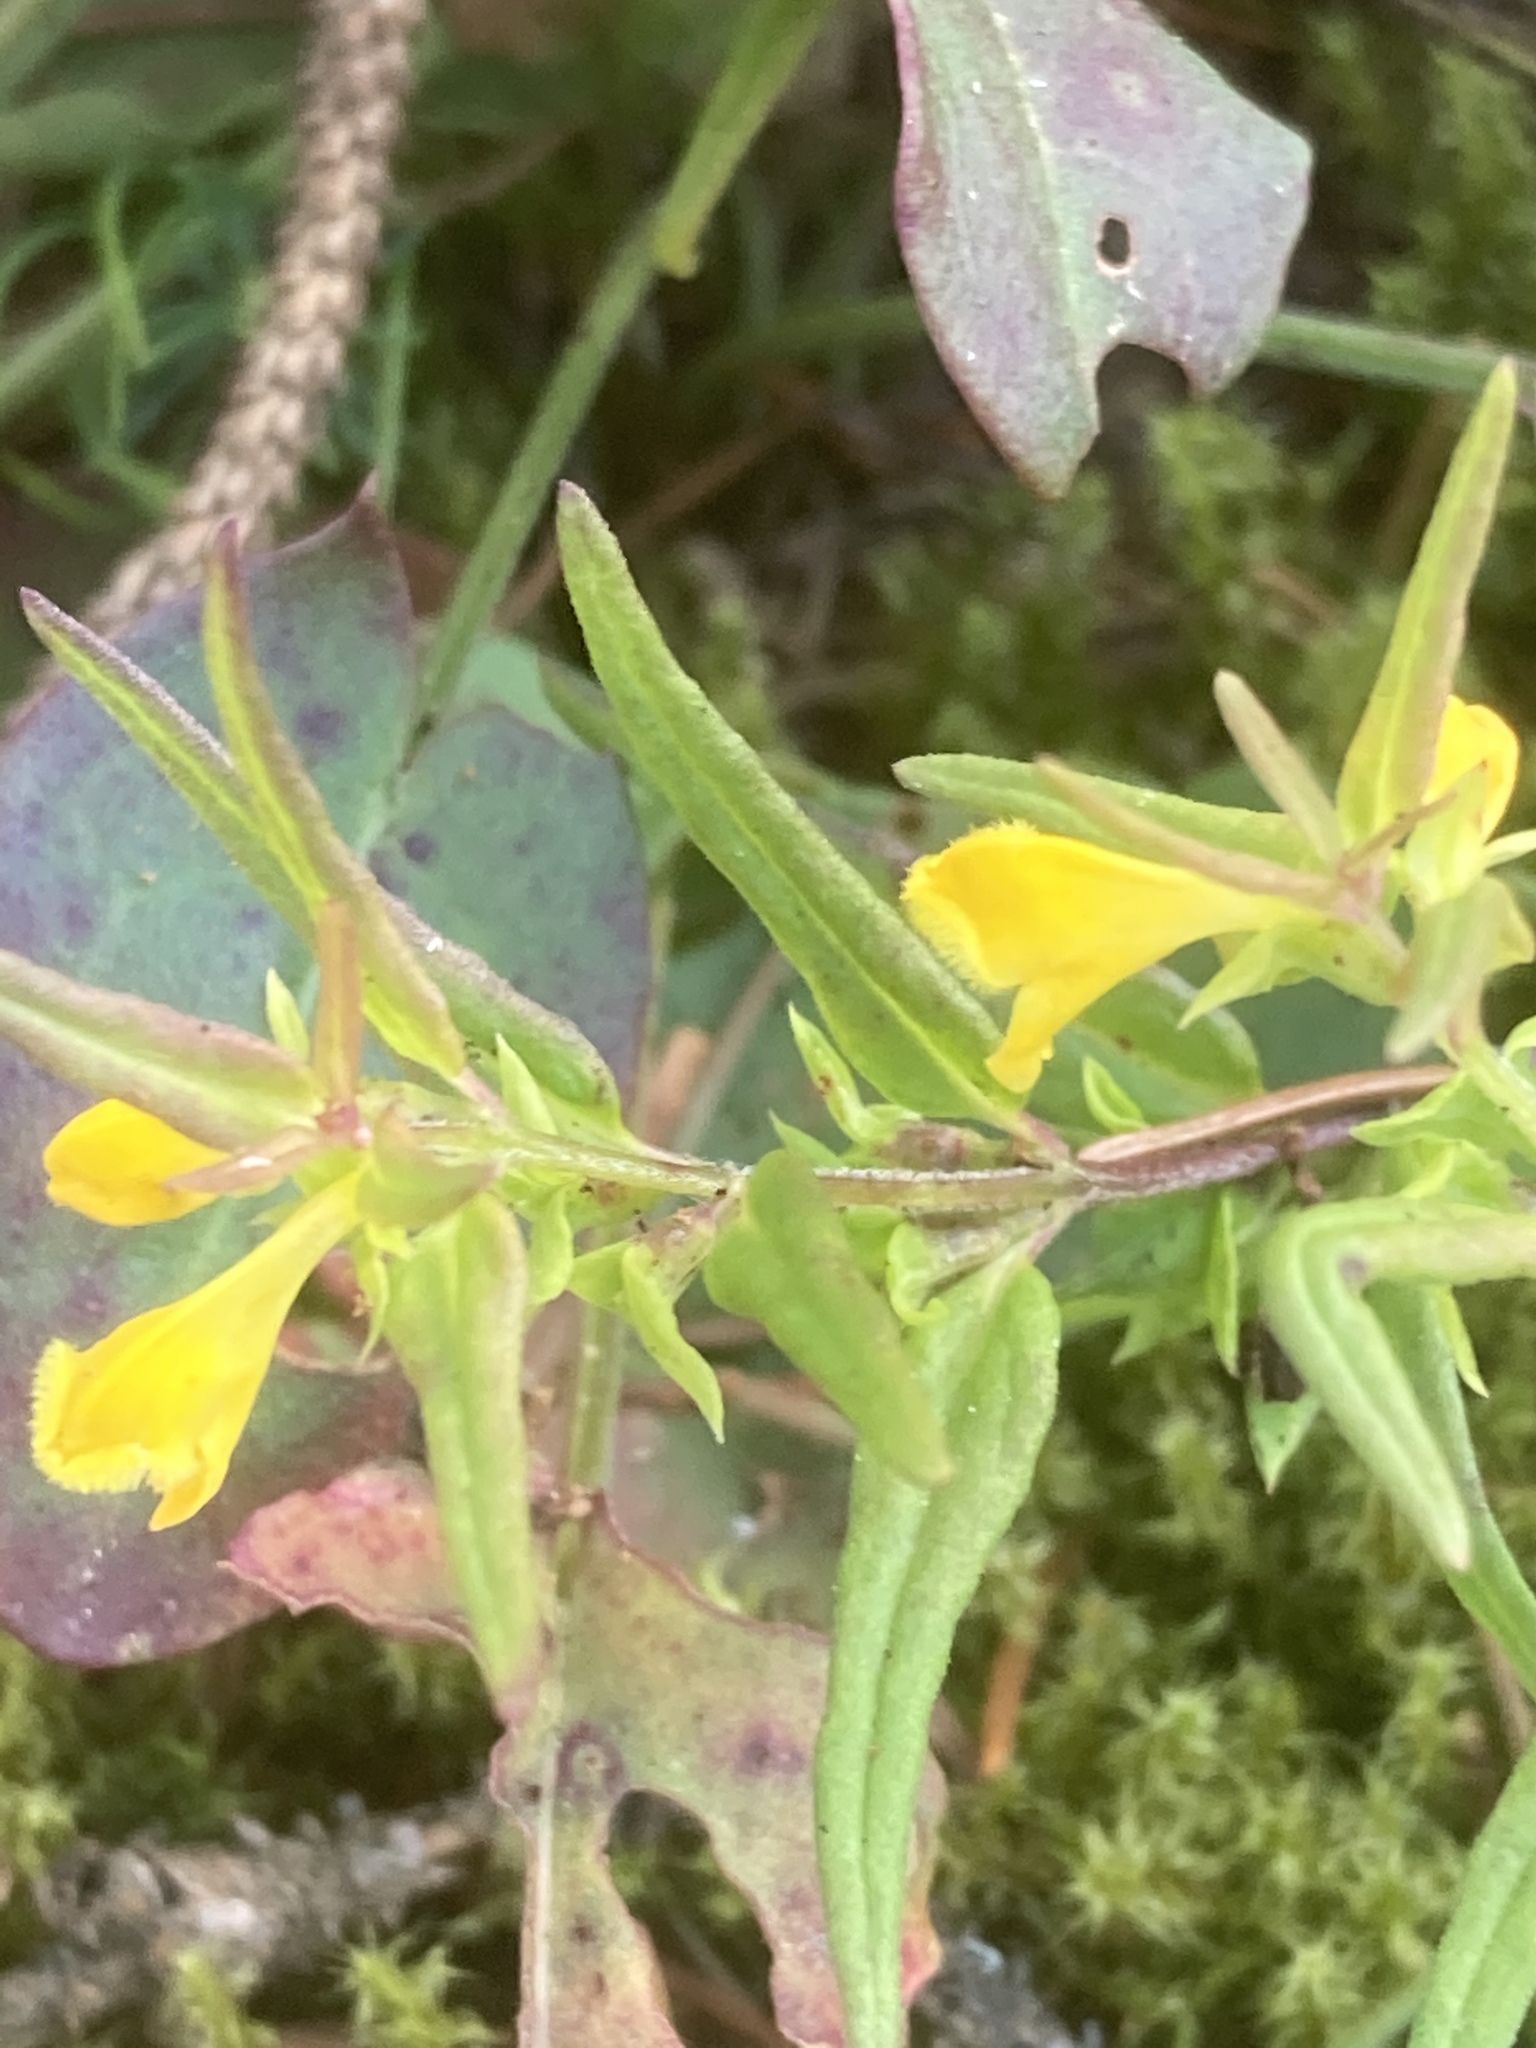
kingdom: Plantae
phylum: Tracheophyta
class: Magnoliopsida
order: Lamiales
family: Orobanchaceae
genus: Melampyrum
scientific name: Melampyrum sylvaticum
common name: Small cow-wheat
